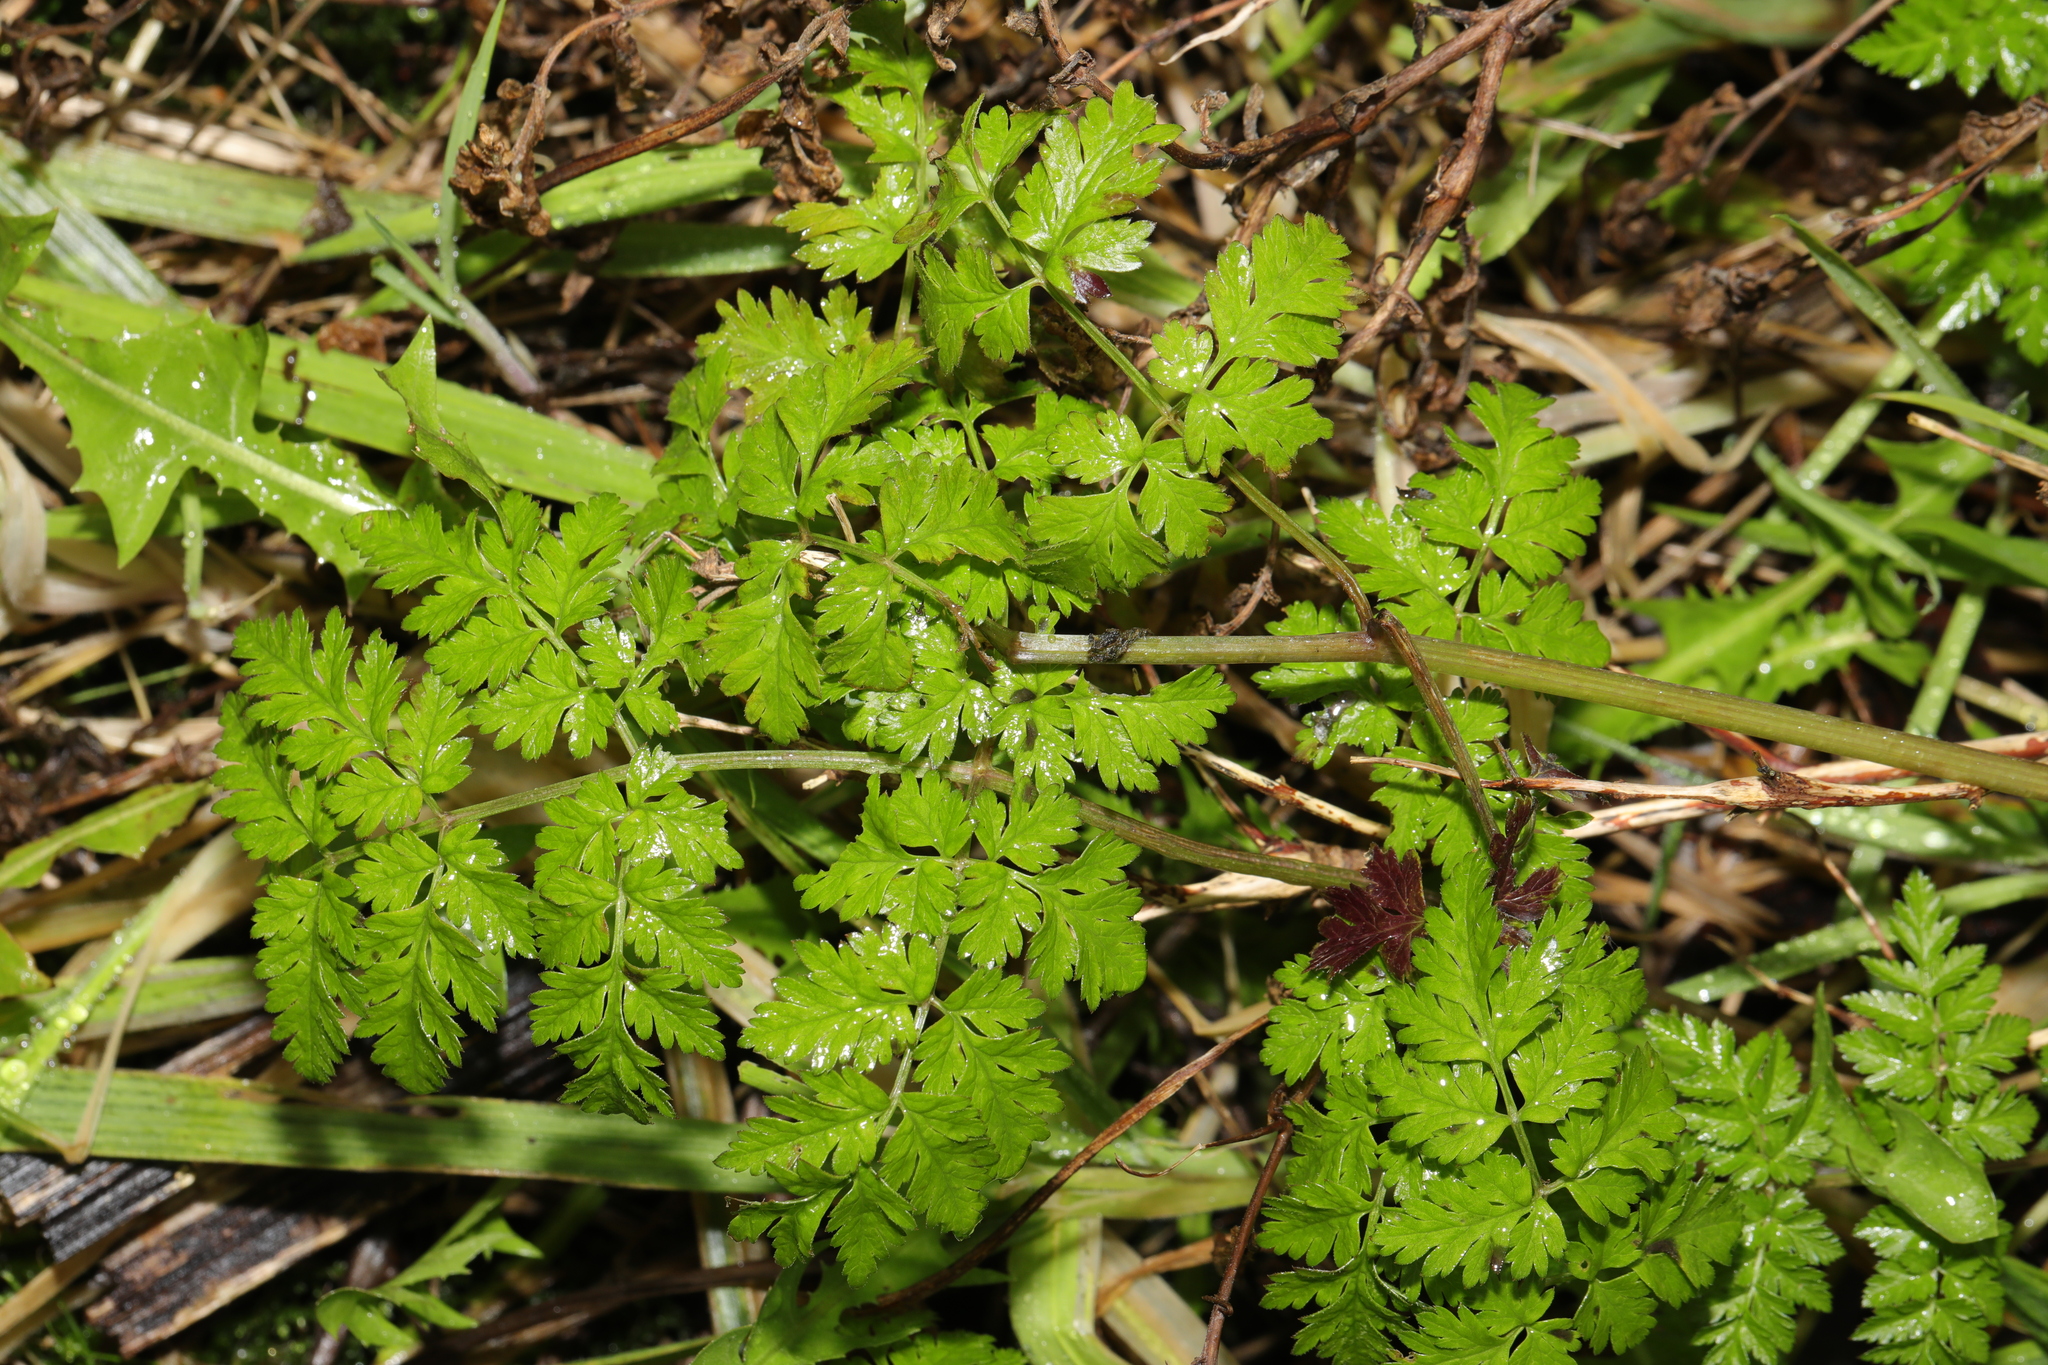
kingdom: Plantae
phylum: Tracheophyta
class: Magnoliopsida
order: Apiales
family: Apiaceae
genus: Anthriscus
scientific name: Anthriscus sylvestris
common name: Cow parsley
